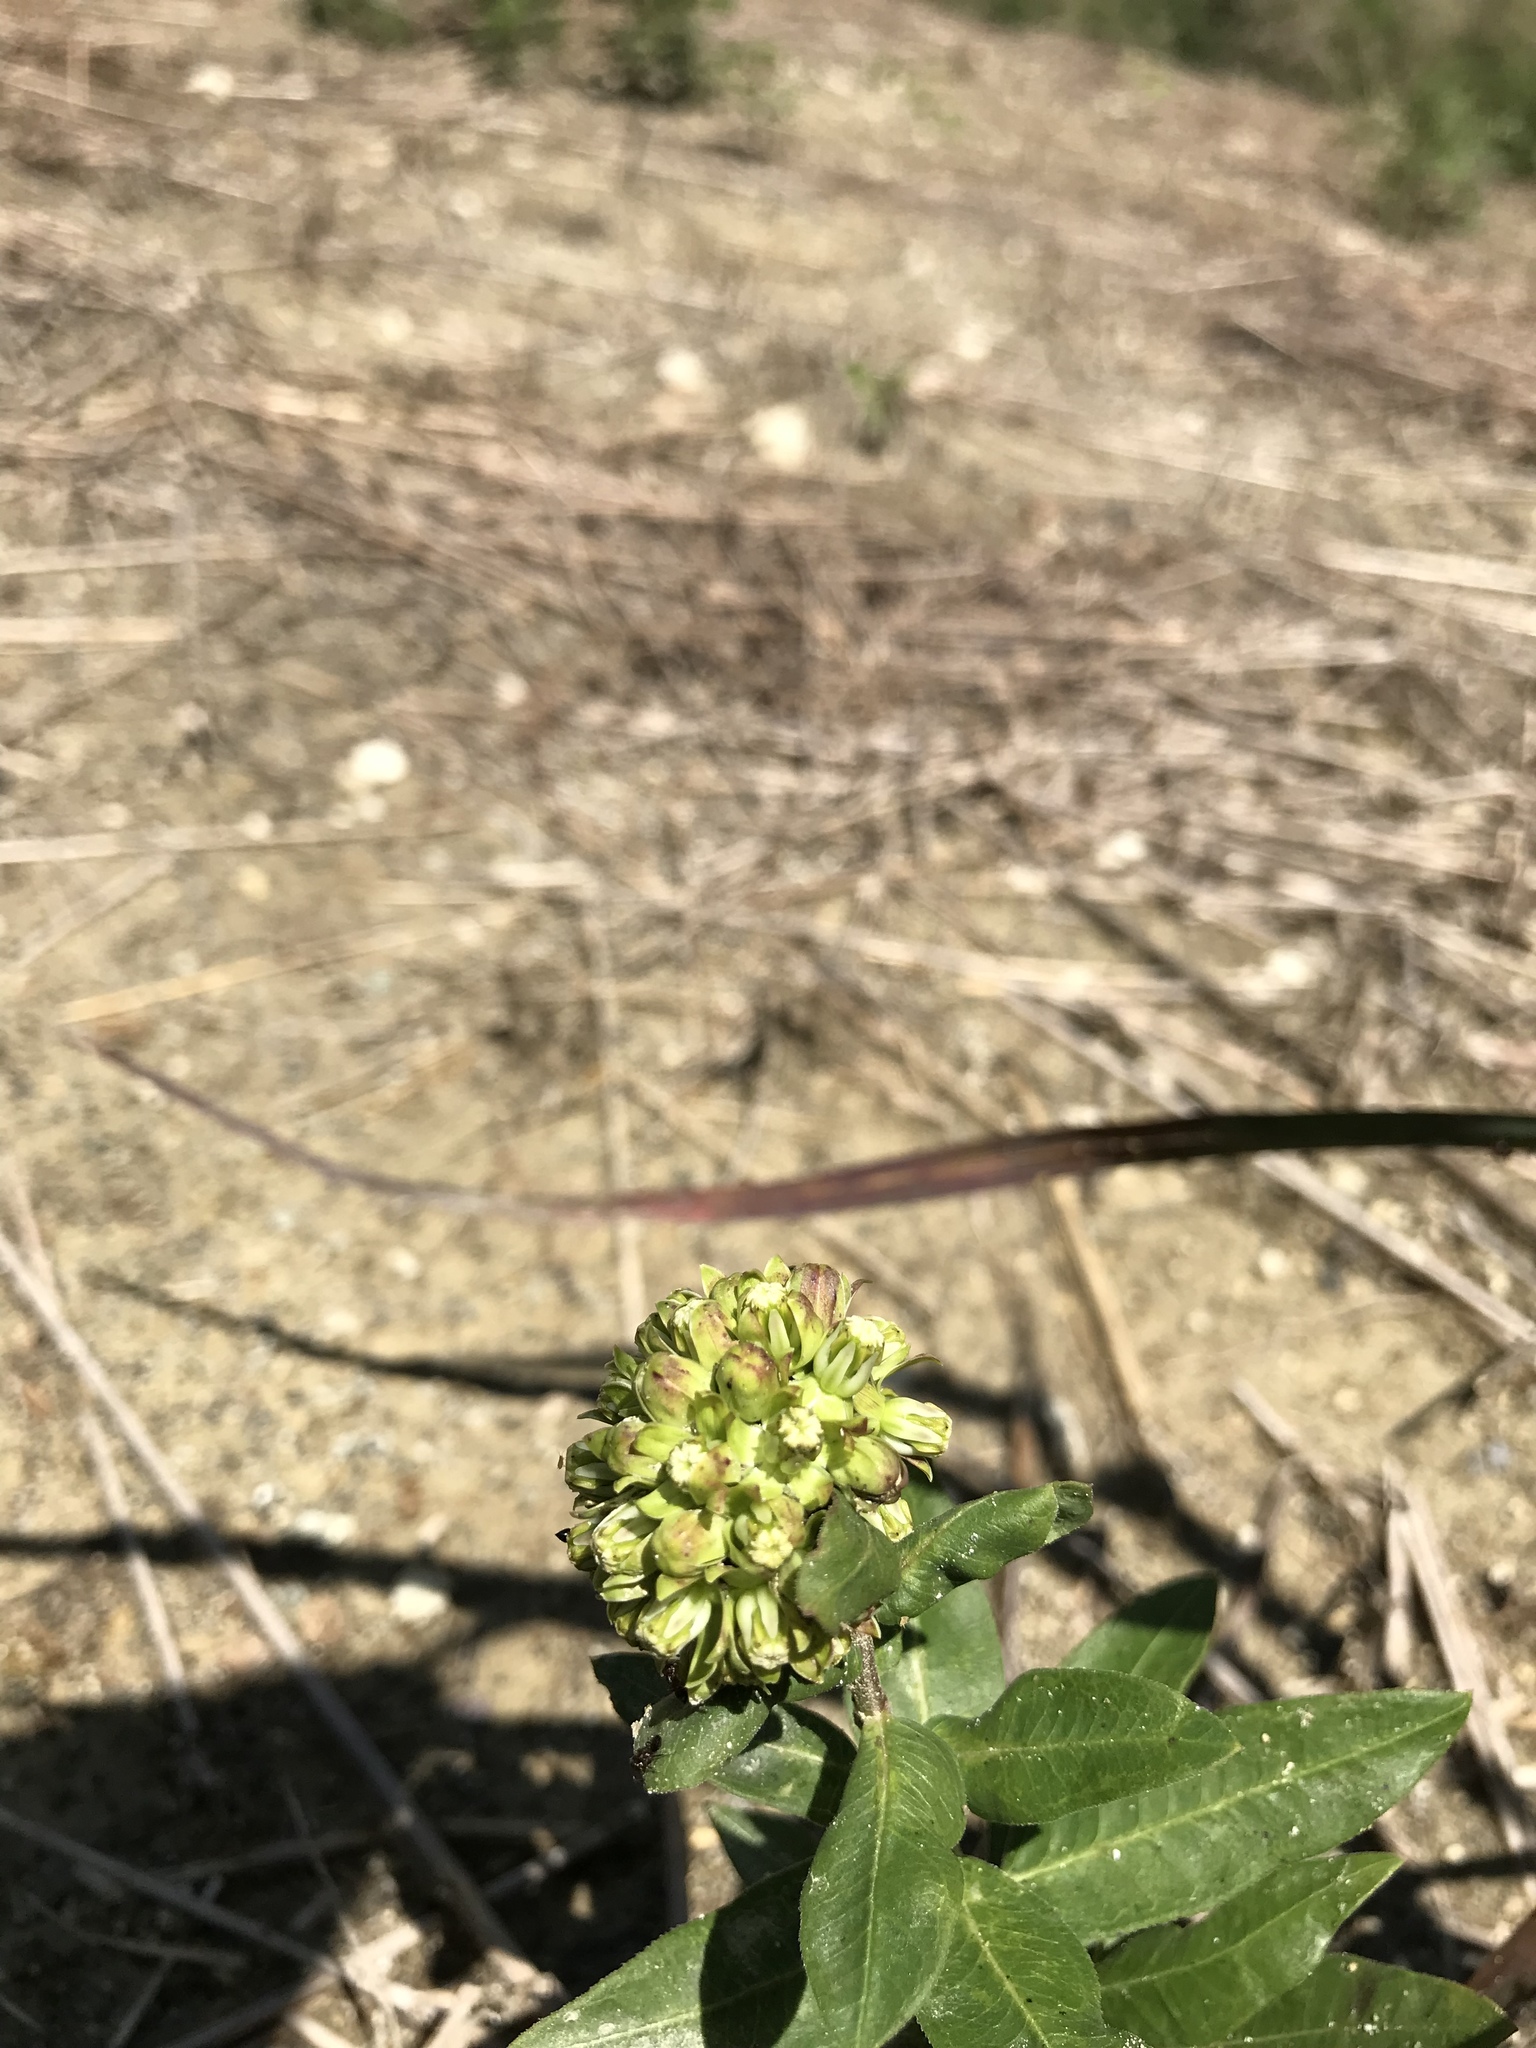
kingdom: Plantae
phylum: Tracheophyta
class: Magnoliopsida
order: Gentianales
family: Apocynaceae
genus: Asclepias
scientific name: Asclepias viridiflora
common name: Green comet milkweed
